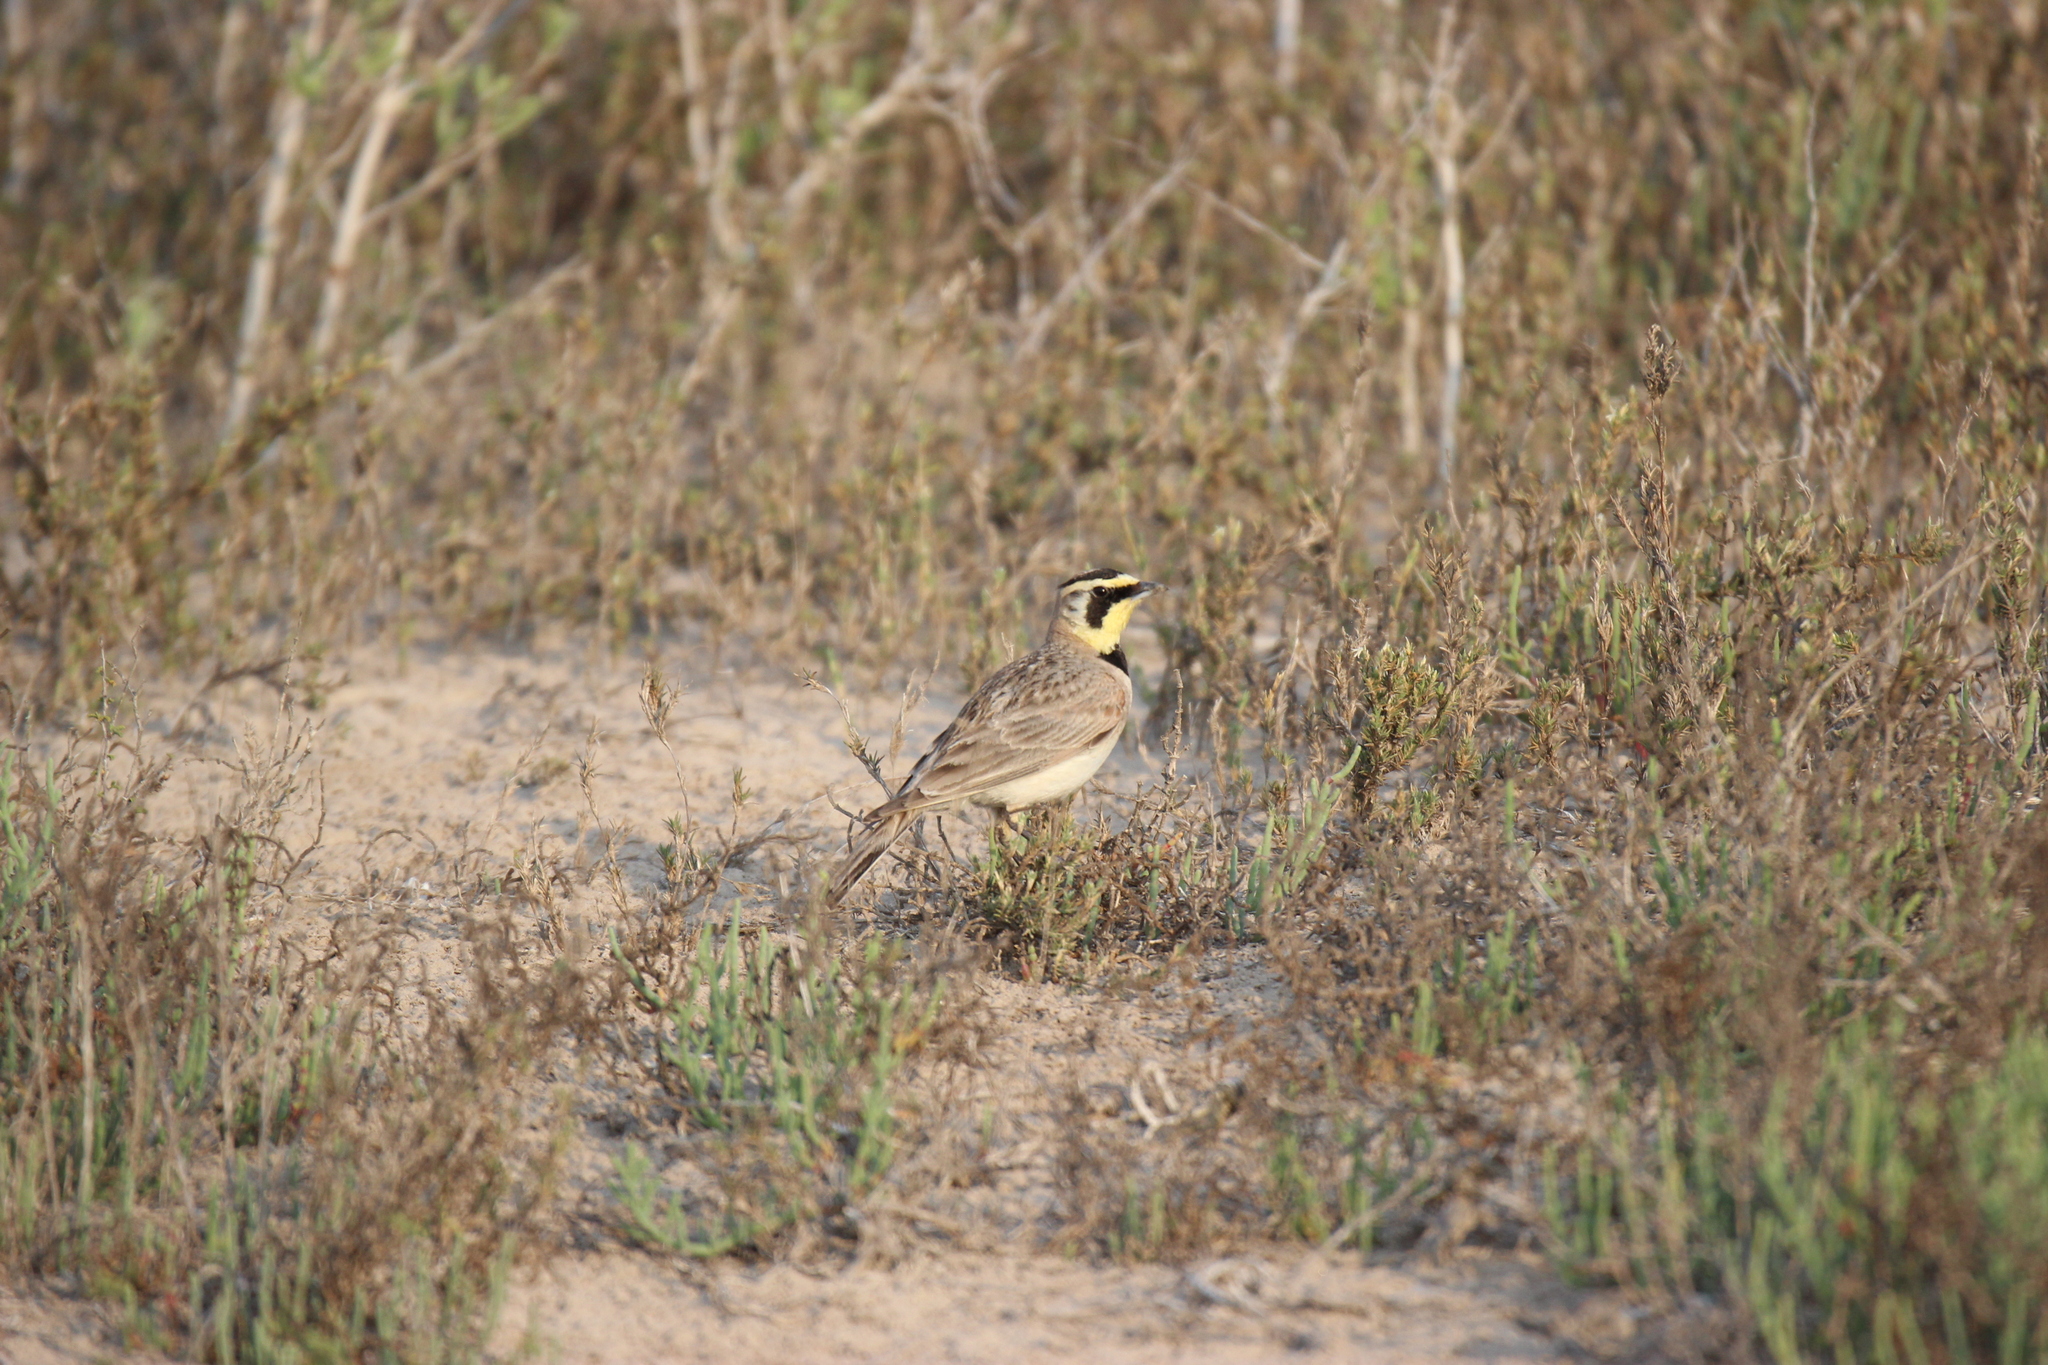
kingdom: Animalia
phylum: Chordata
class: Aves
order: Passeriformes
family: Alaudidae
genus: Eremophila
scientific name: Eremophila alpestris
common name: Horned lark
